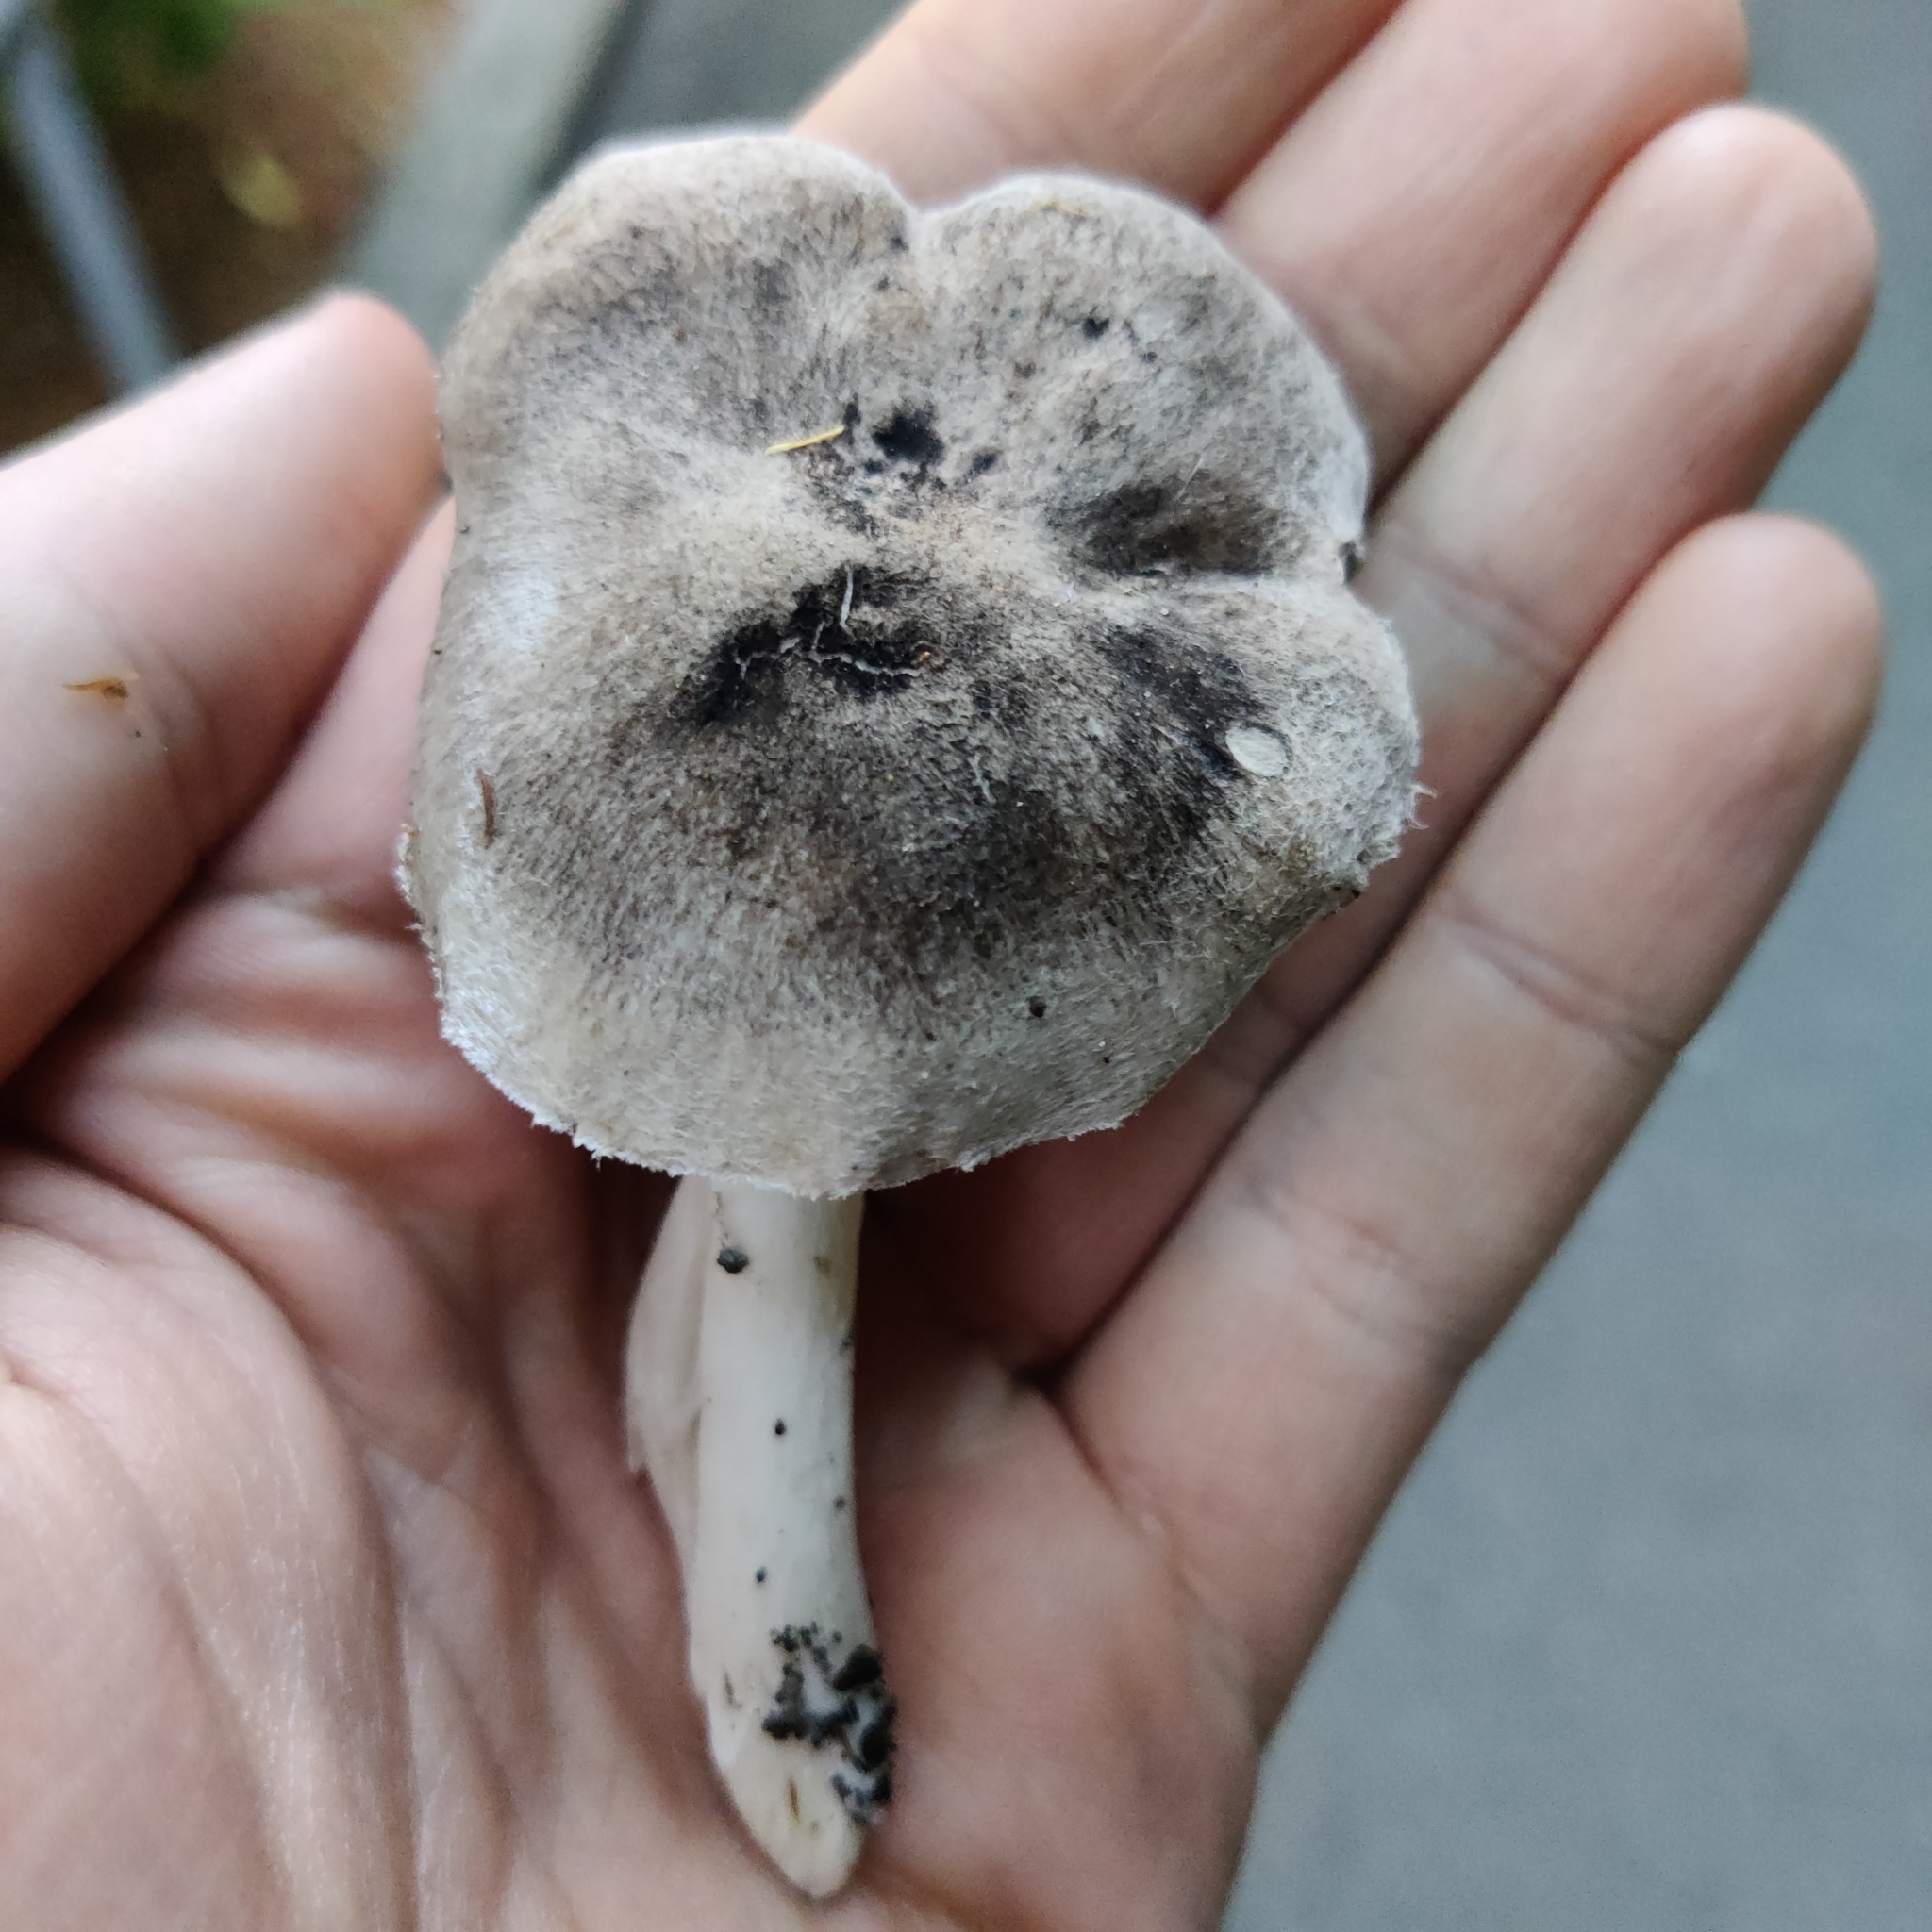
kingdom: Fungi
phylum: Basidiomycota
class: Agaricomycetes
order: Agaricales
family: Tricholomataceae
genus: Tricholoma
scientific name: Tricholoma terreum
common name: Grey knight
